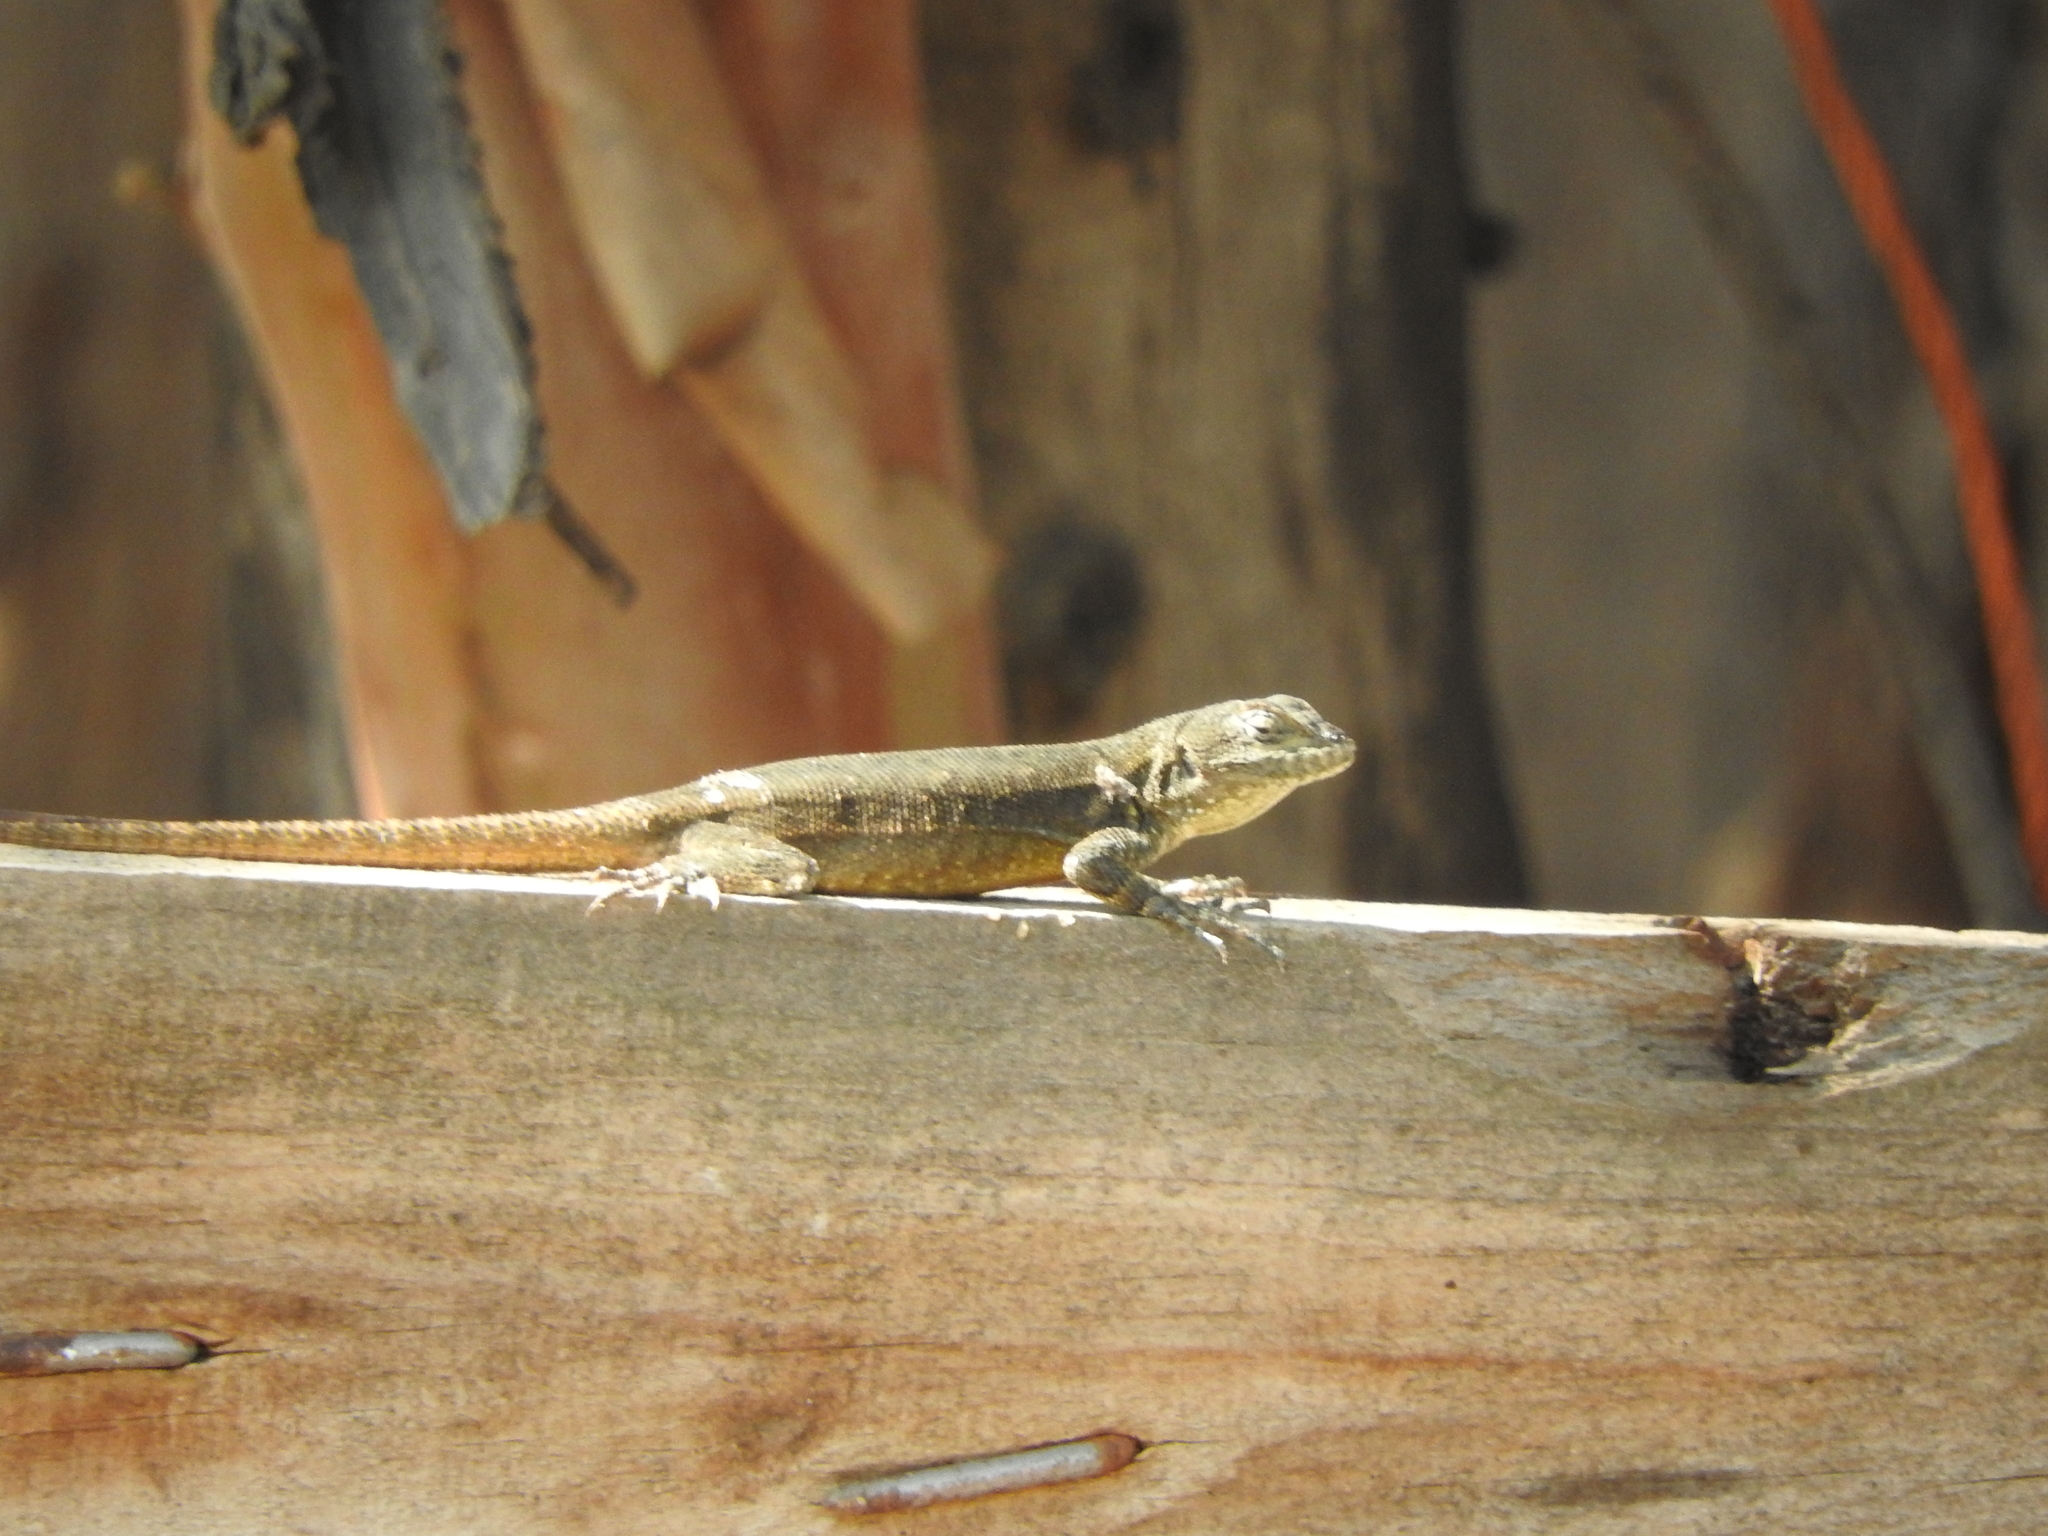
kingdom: Animalia
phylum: Chordata
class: Squamata
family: Phrynosomatidae
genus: Sceloporus
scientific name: Sceloporus grammicus
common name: Mesquite lizard
